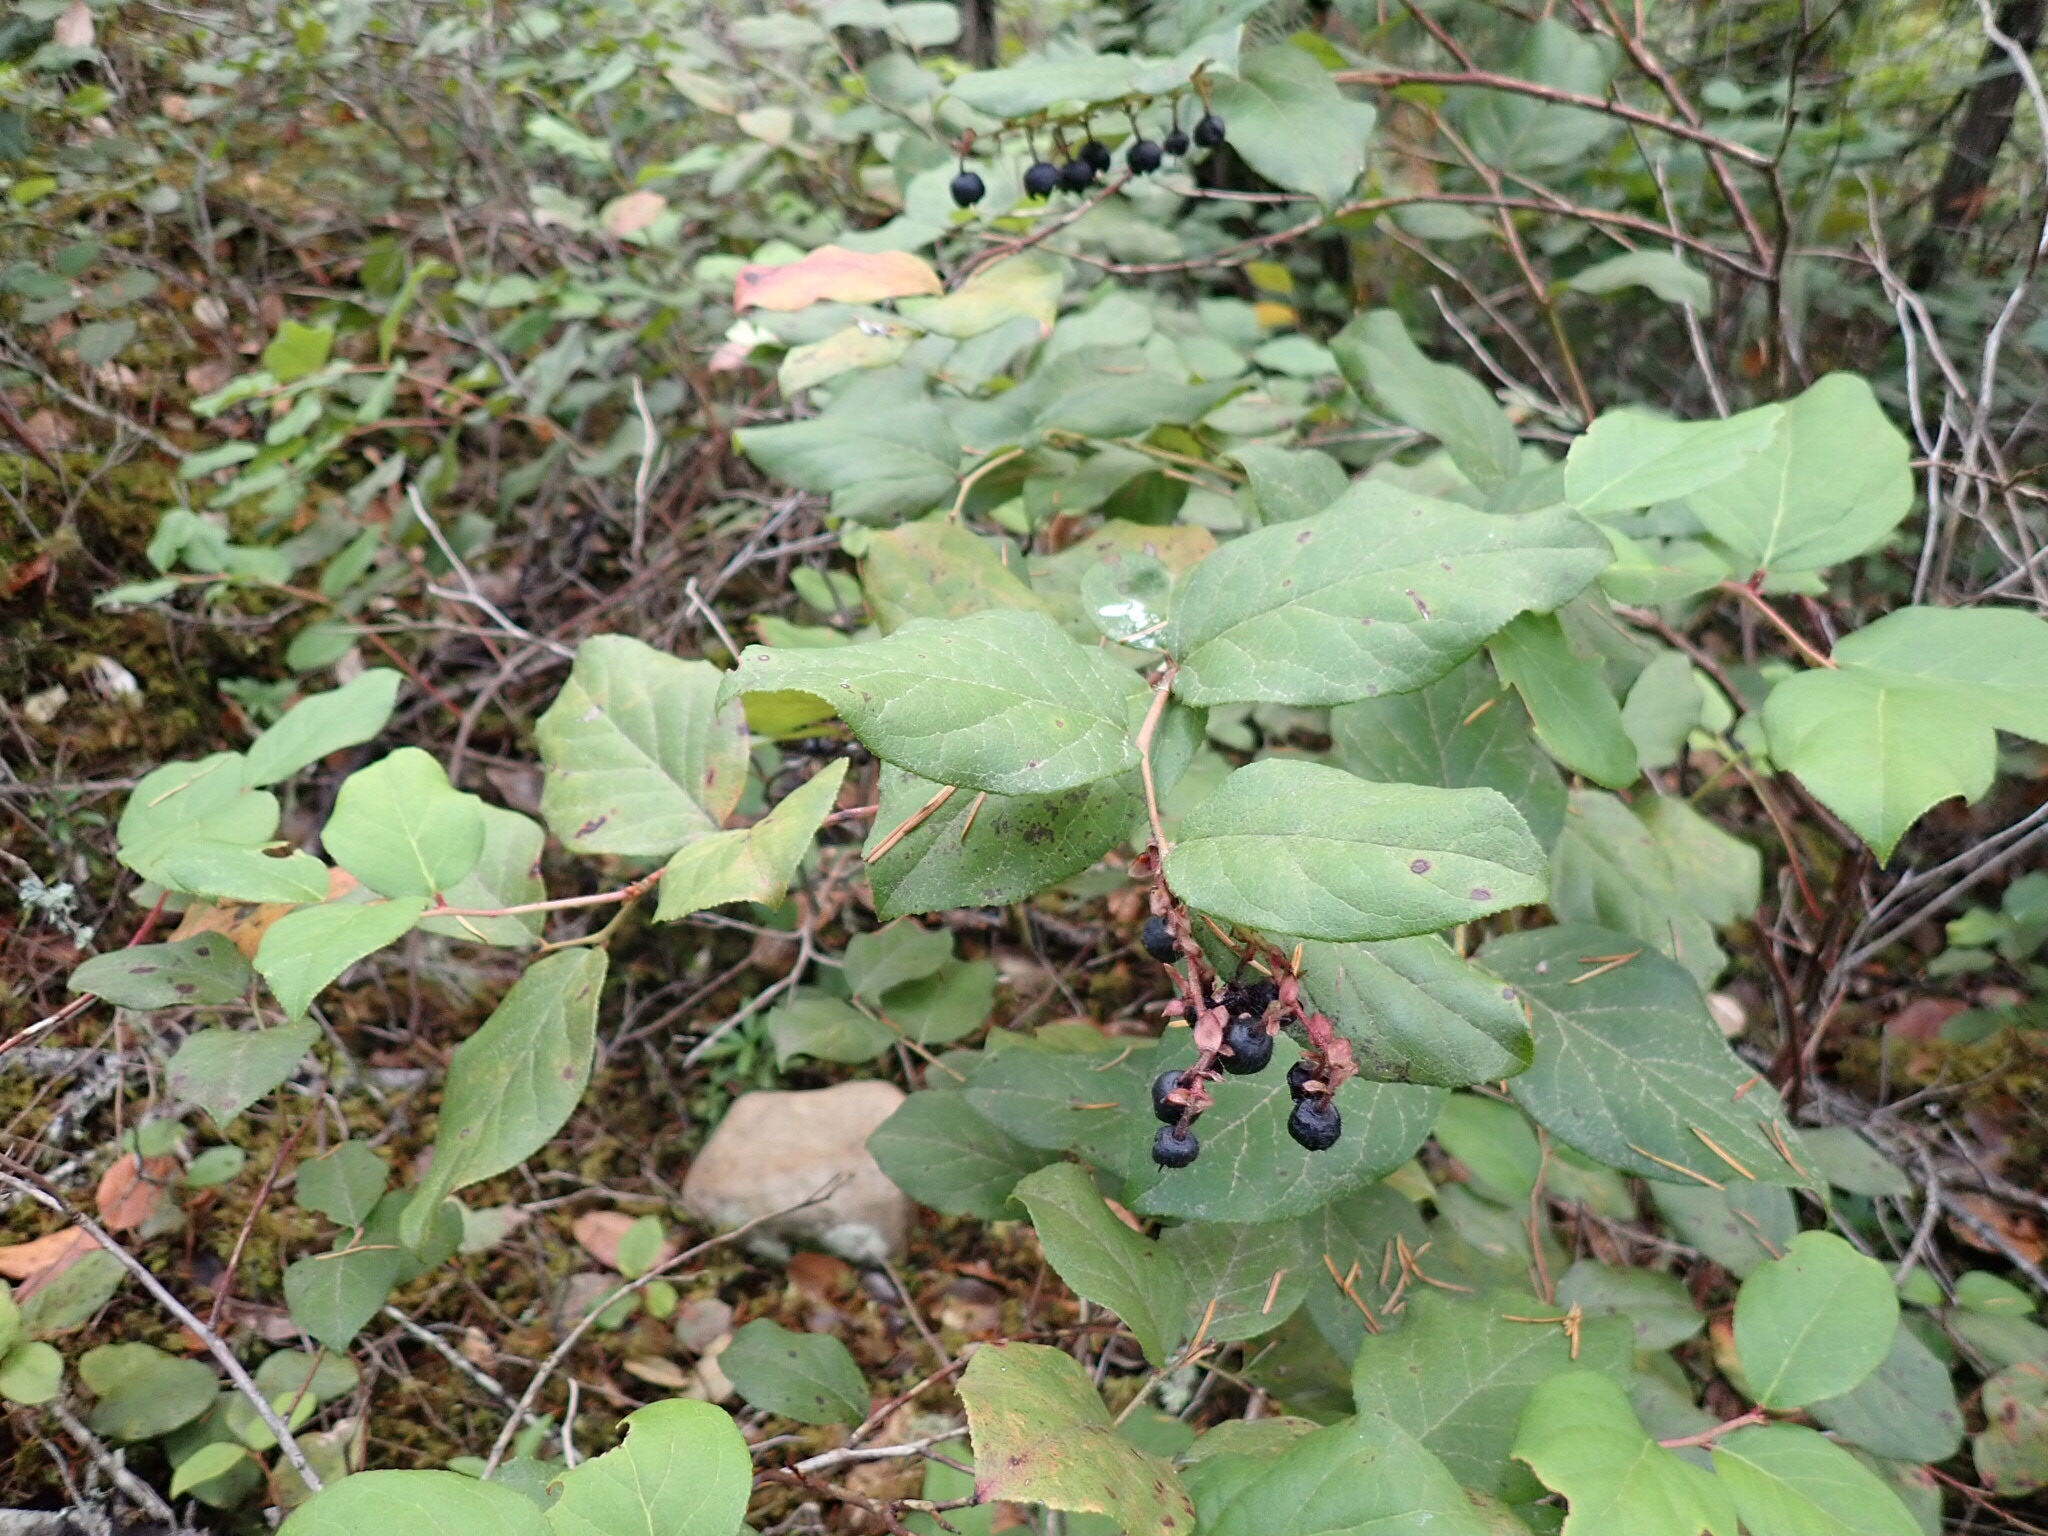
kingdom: Plantae
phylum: Tracheophyta
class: Magnoliopsida
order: Ericales
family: Ericaceae
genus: Gaultheria
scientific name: Gaultheria shallon
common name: Shallon
